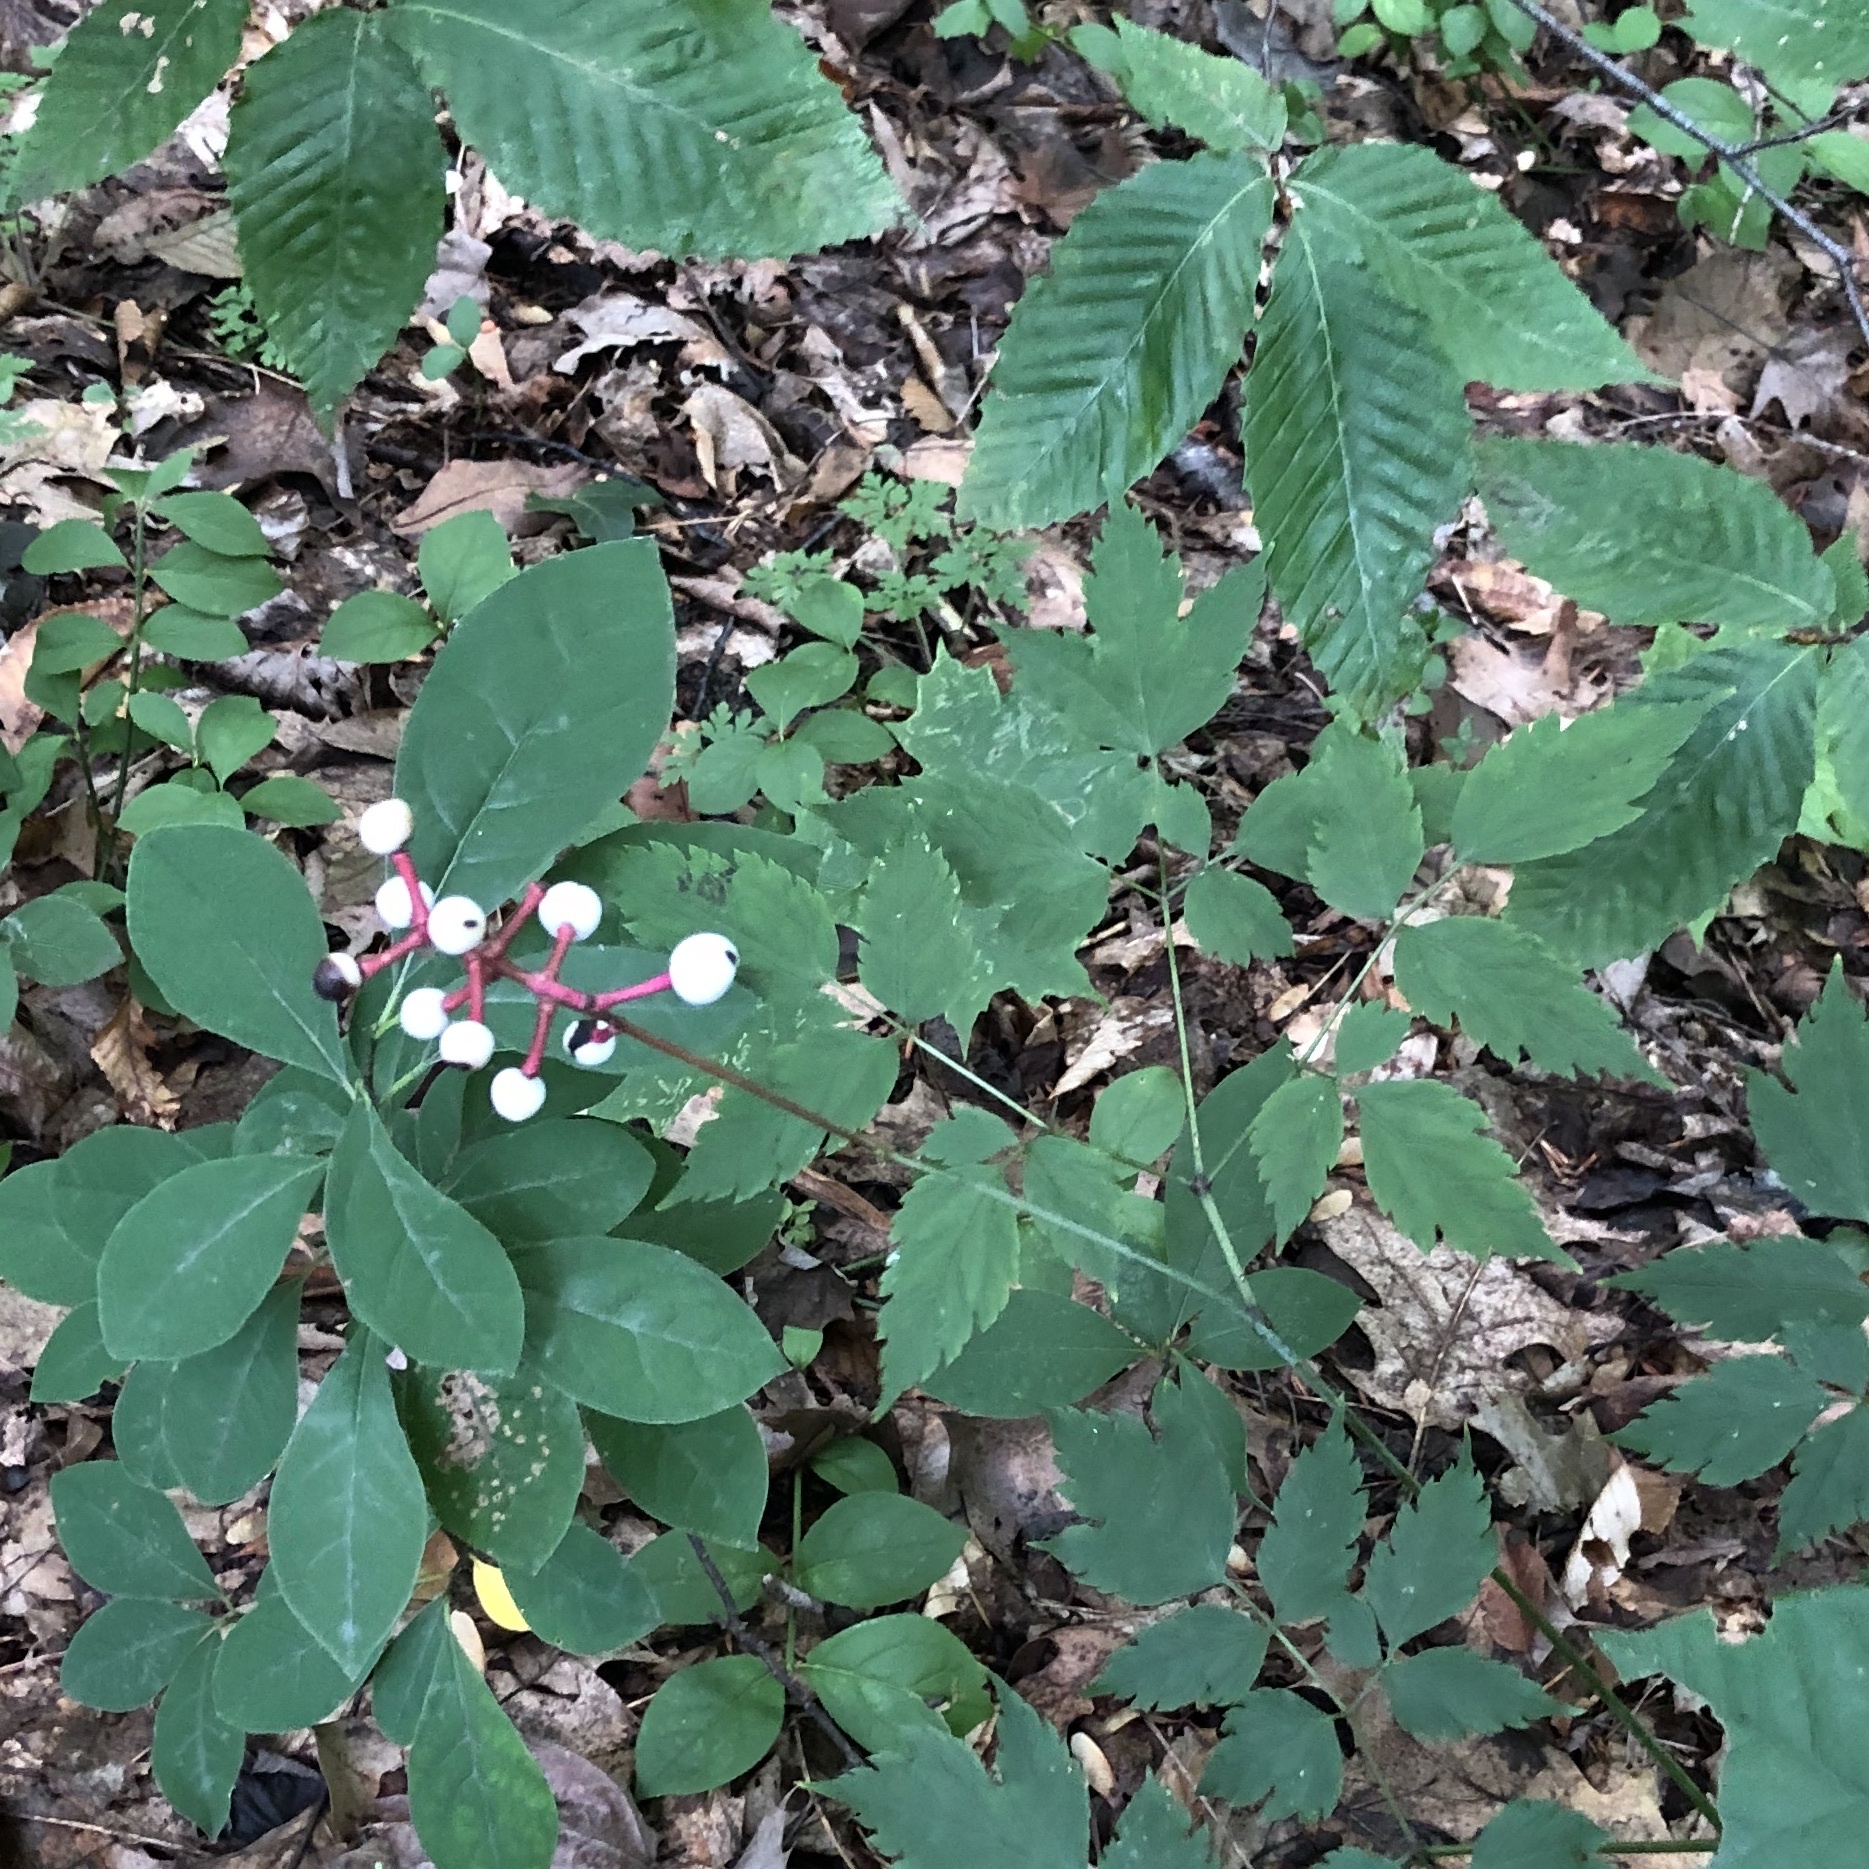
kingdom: Plantae
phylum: Tracheophyta
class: Magnoliopsida
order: Ranunculales
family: Ranunculaceae
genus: Actaea
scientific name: Actaea pachypoda
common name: Doll's-eyes
